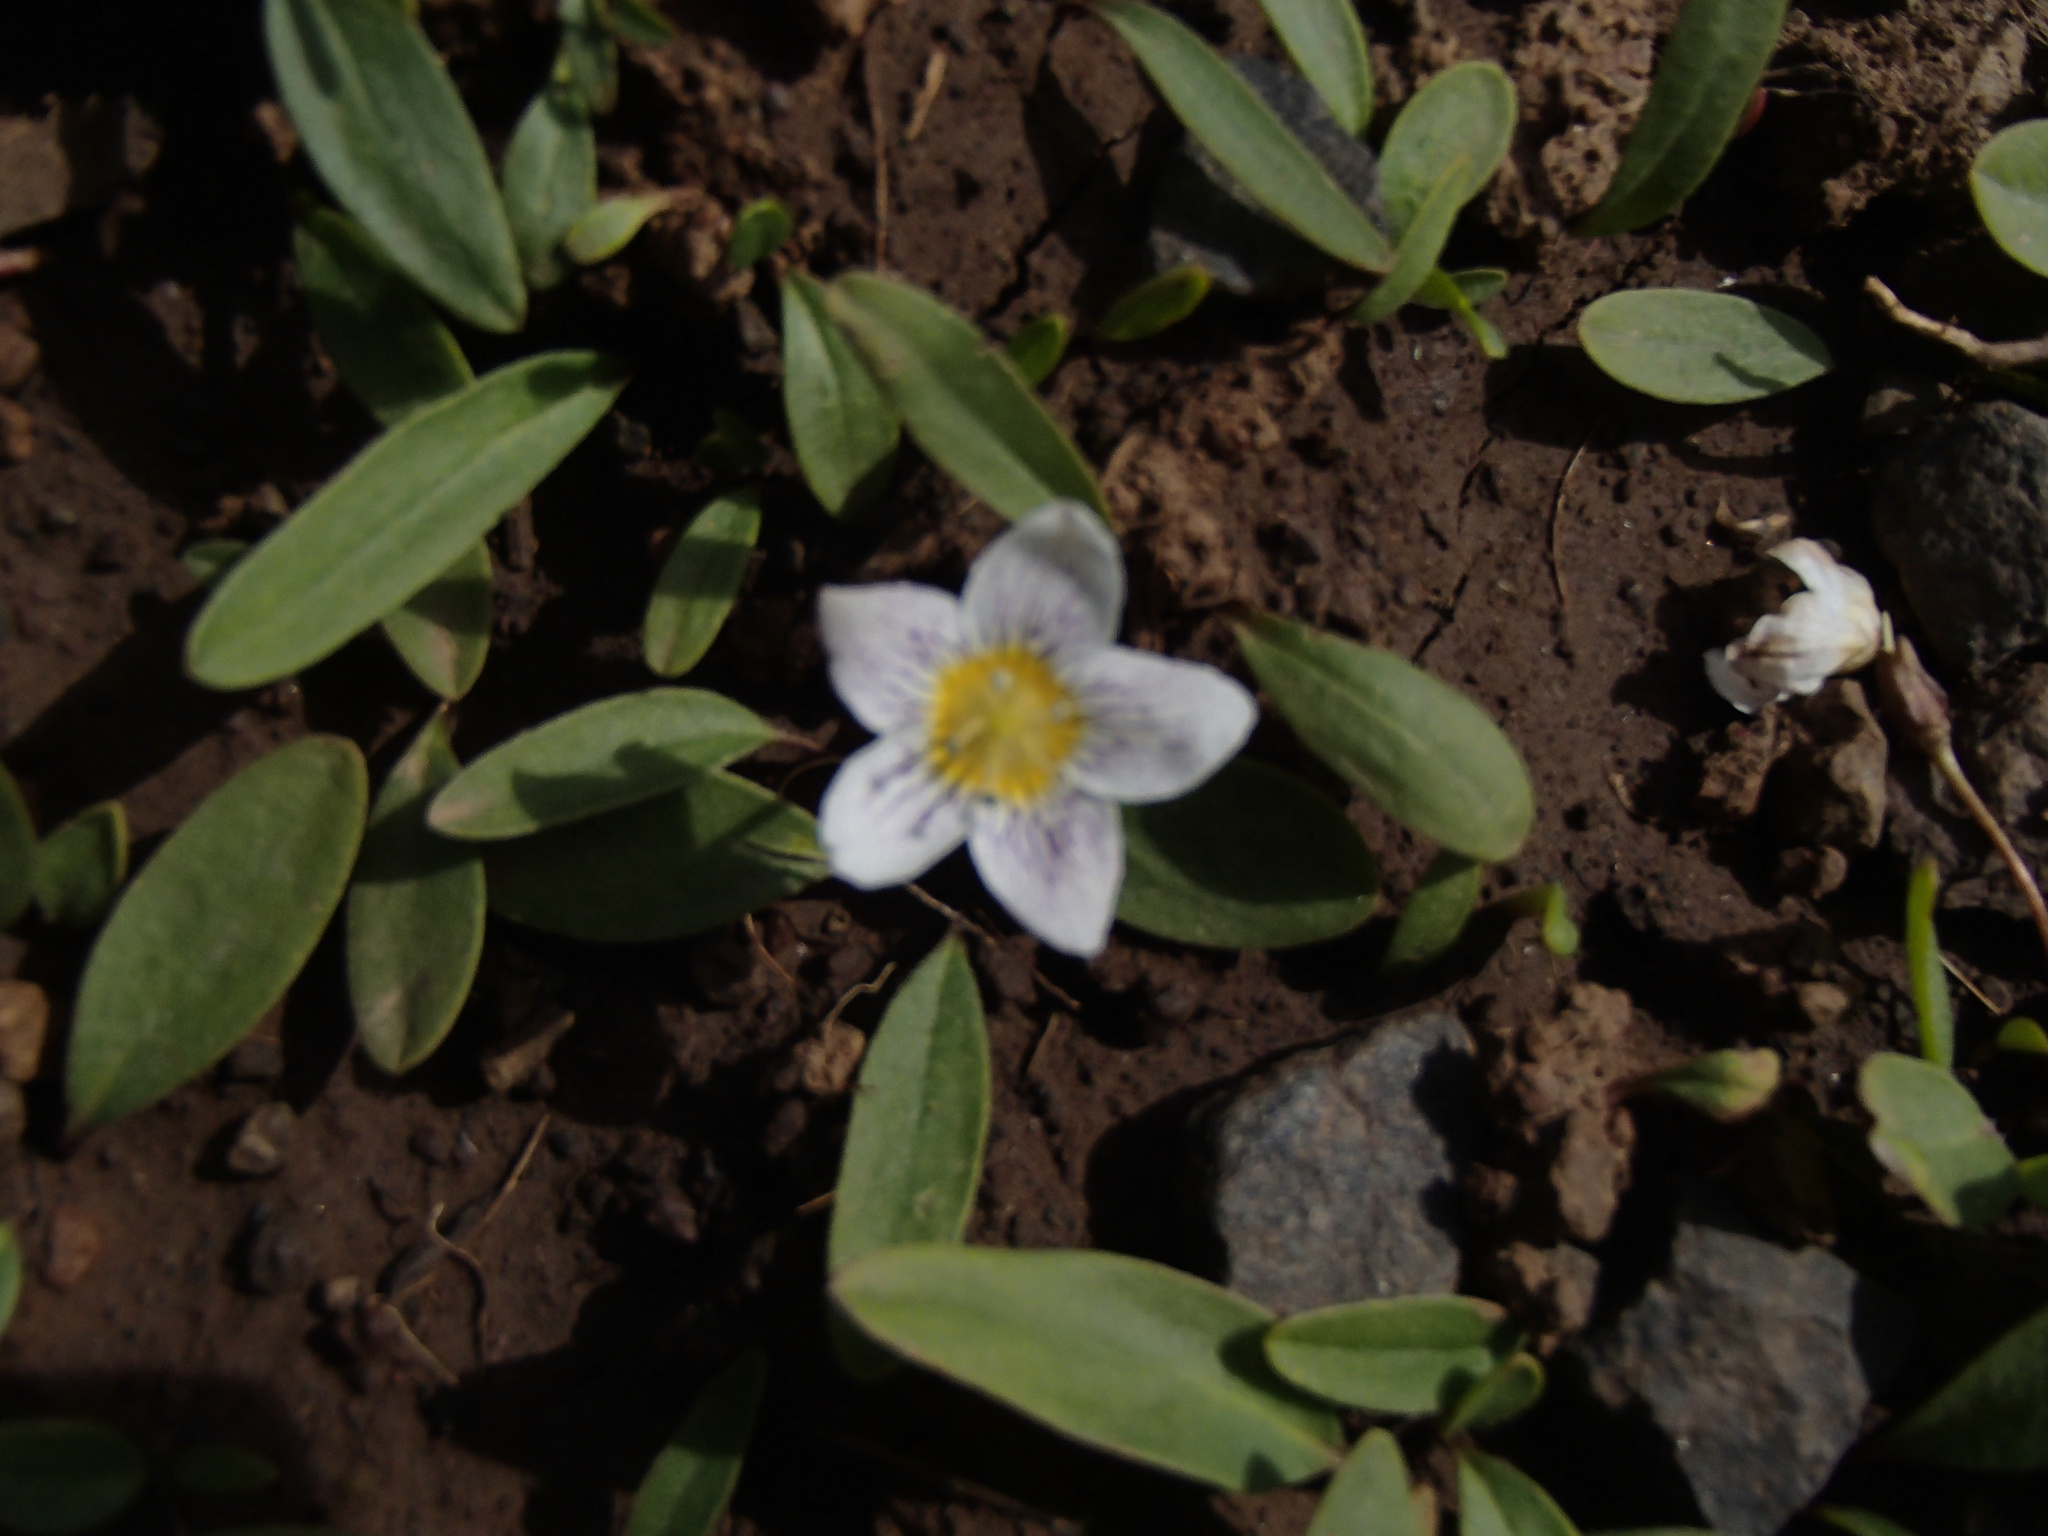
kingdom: Plantae
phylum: Tracheophyta
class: Magnoliopsida
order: Boraginales
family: Hydrophyllaceae
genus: Hesperochiron
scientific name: Hesperochiron pumilus
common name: Dwarf hesperochiron
